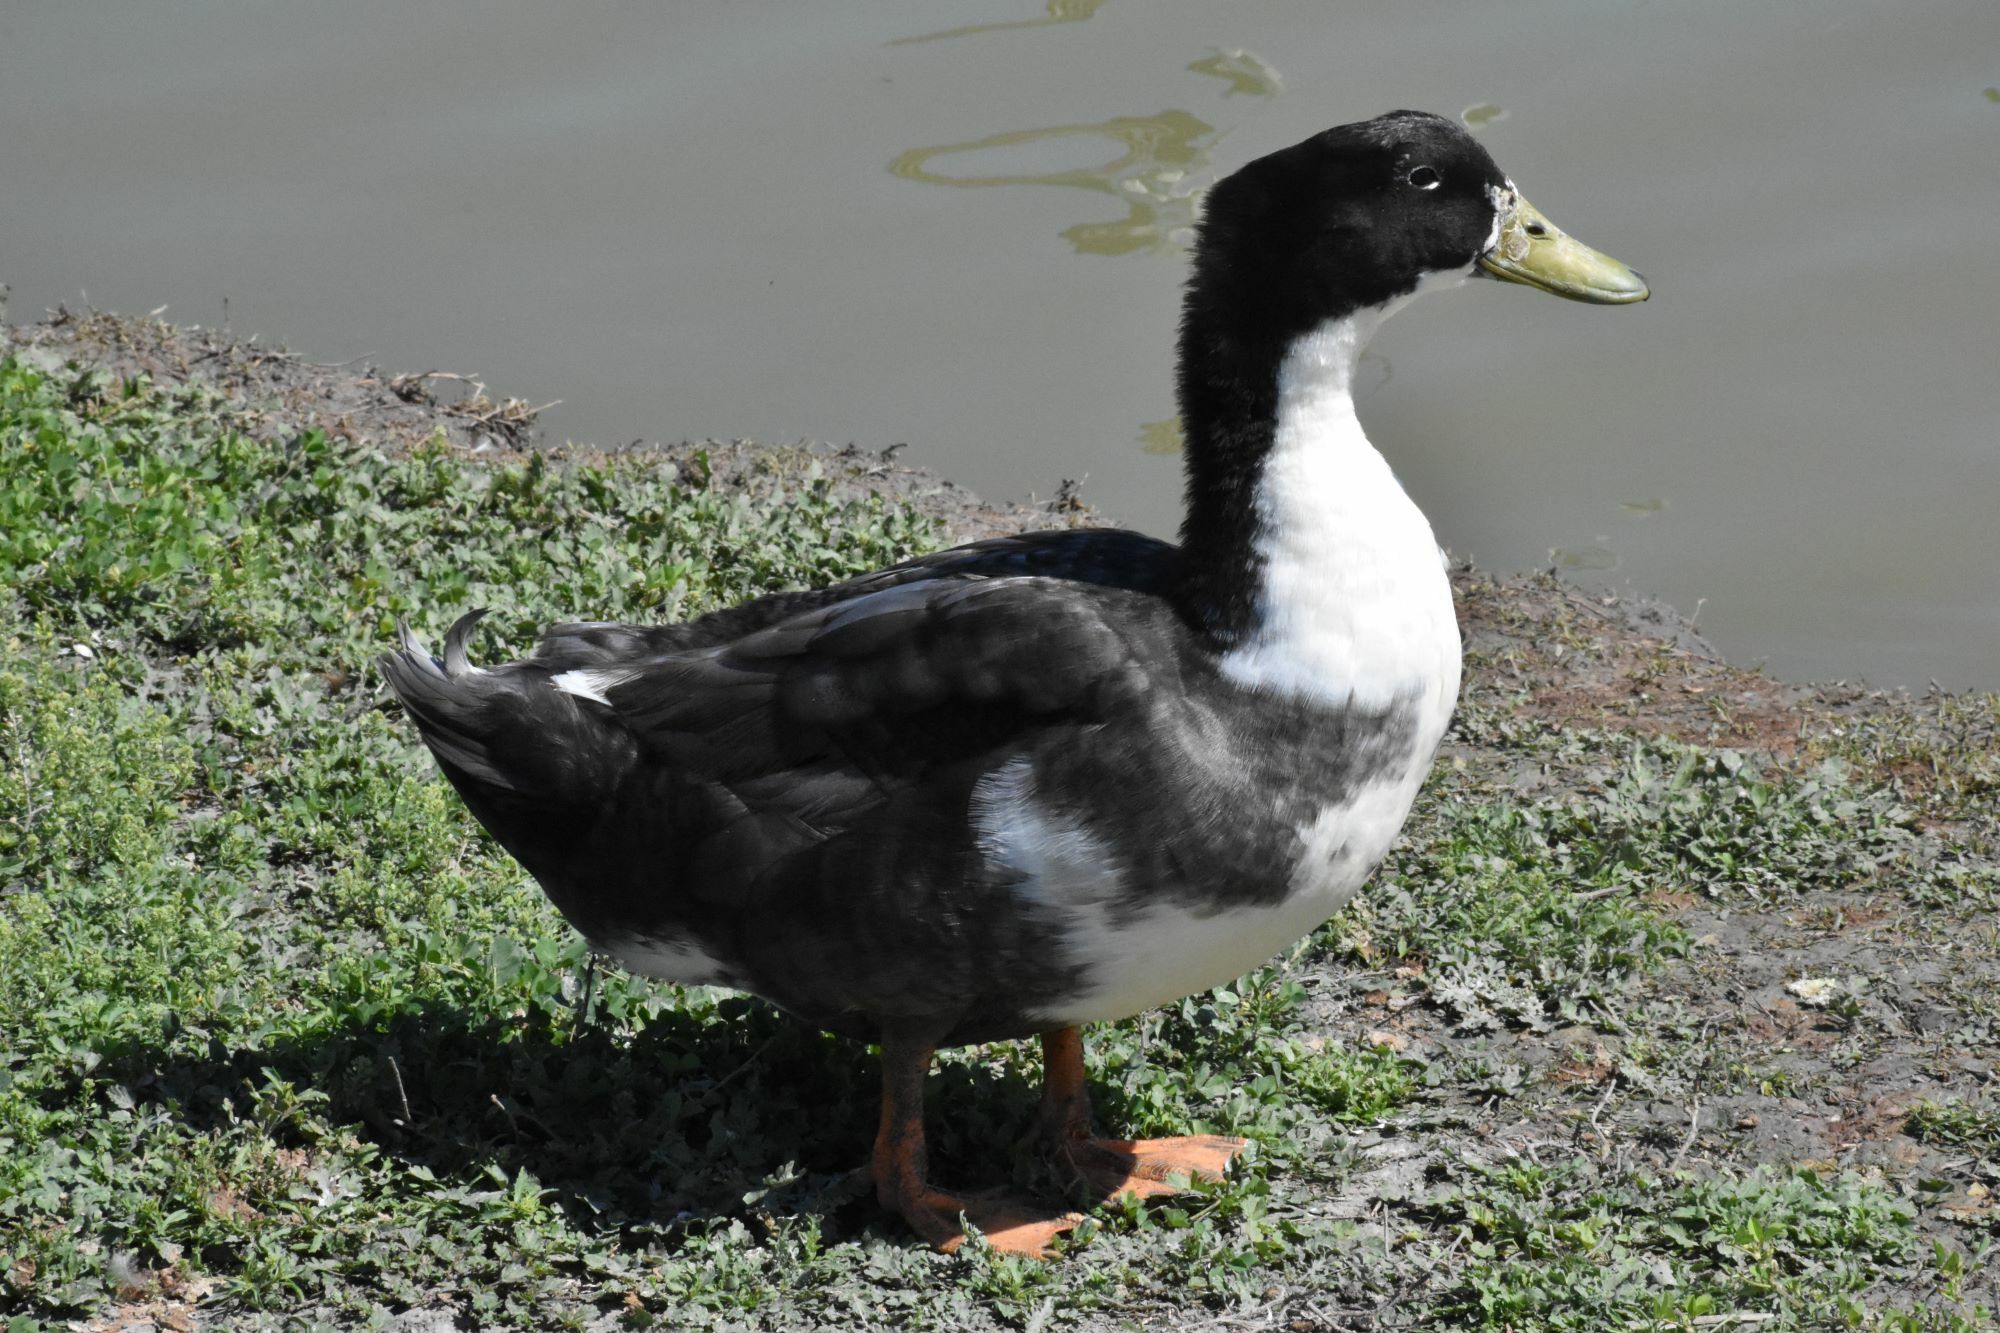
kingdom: Animalia
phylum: Chordata
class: Aves
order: Anseriformes
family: Anatidae
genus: Anas
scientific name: Anas platyrhynchos
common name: Mallard
